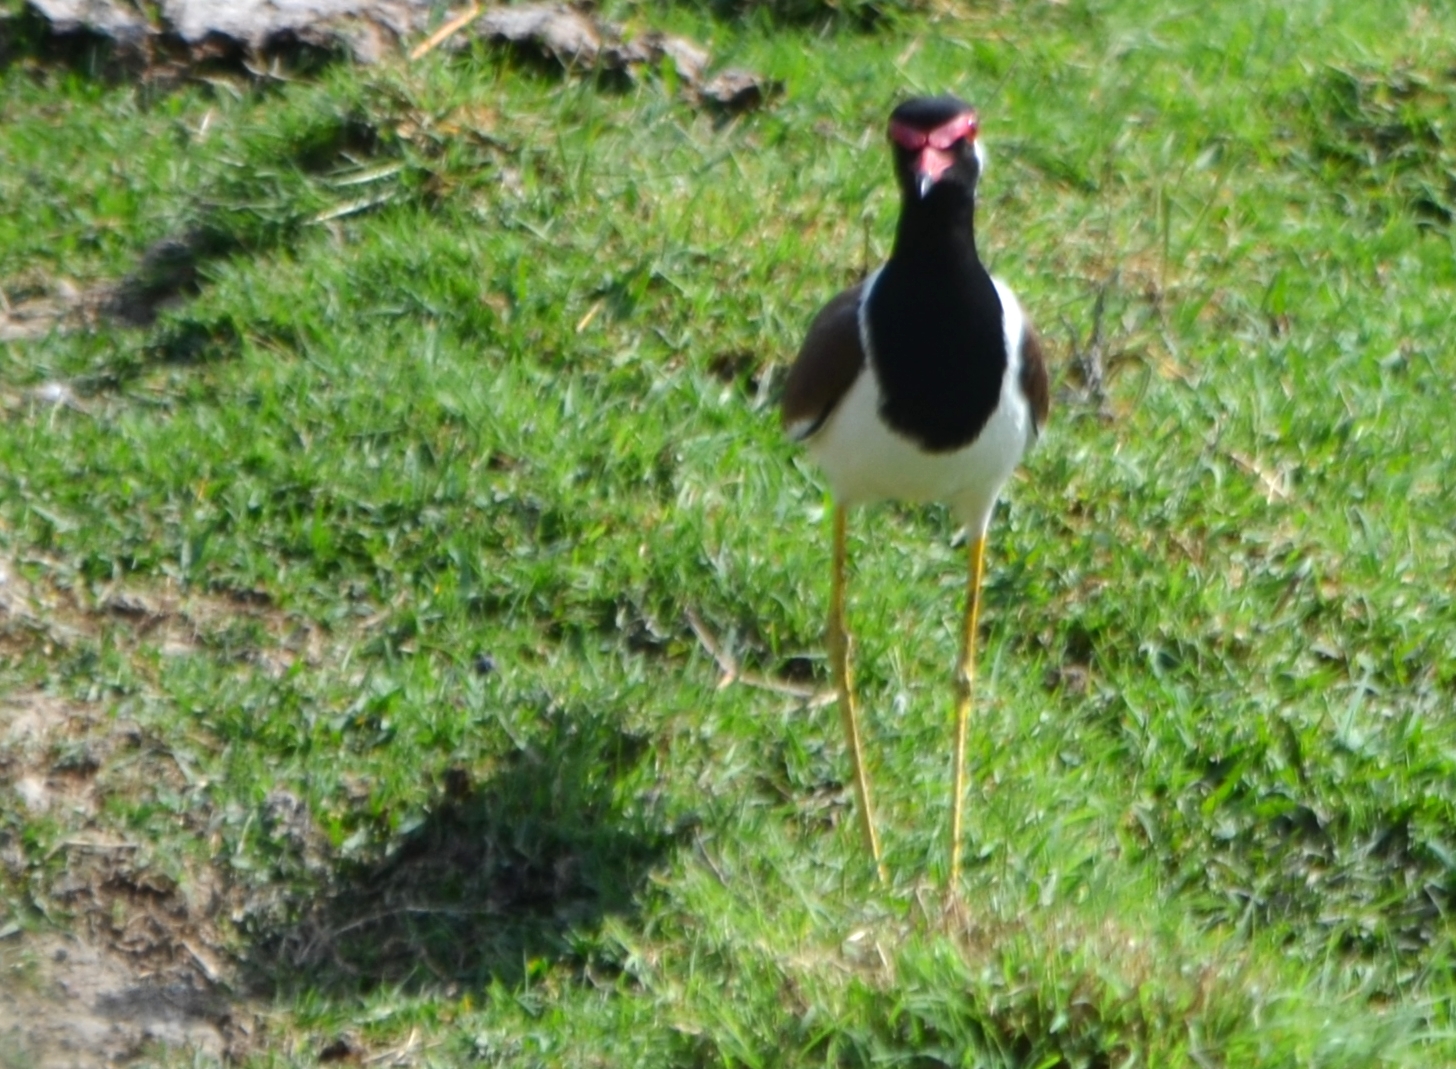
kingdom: Animalia
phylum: Chordata
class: Aves
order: Charadriiformes
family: Charadriidae
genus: Vanellus
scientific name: Vanellus indicus
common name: Red-wattled lapwing
